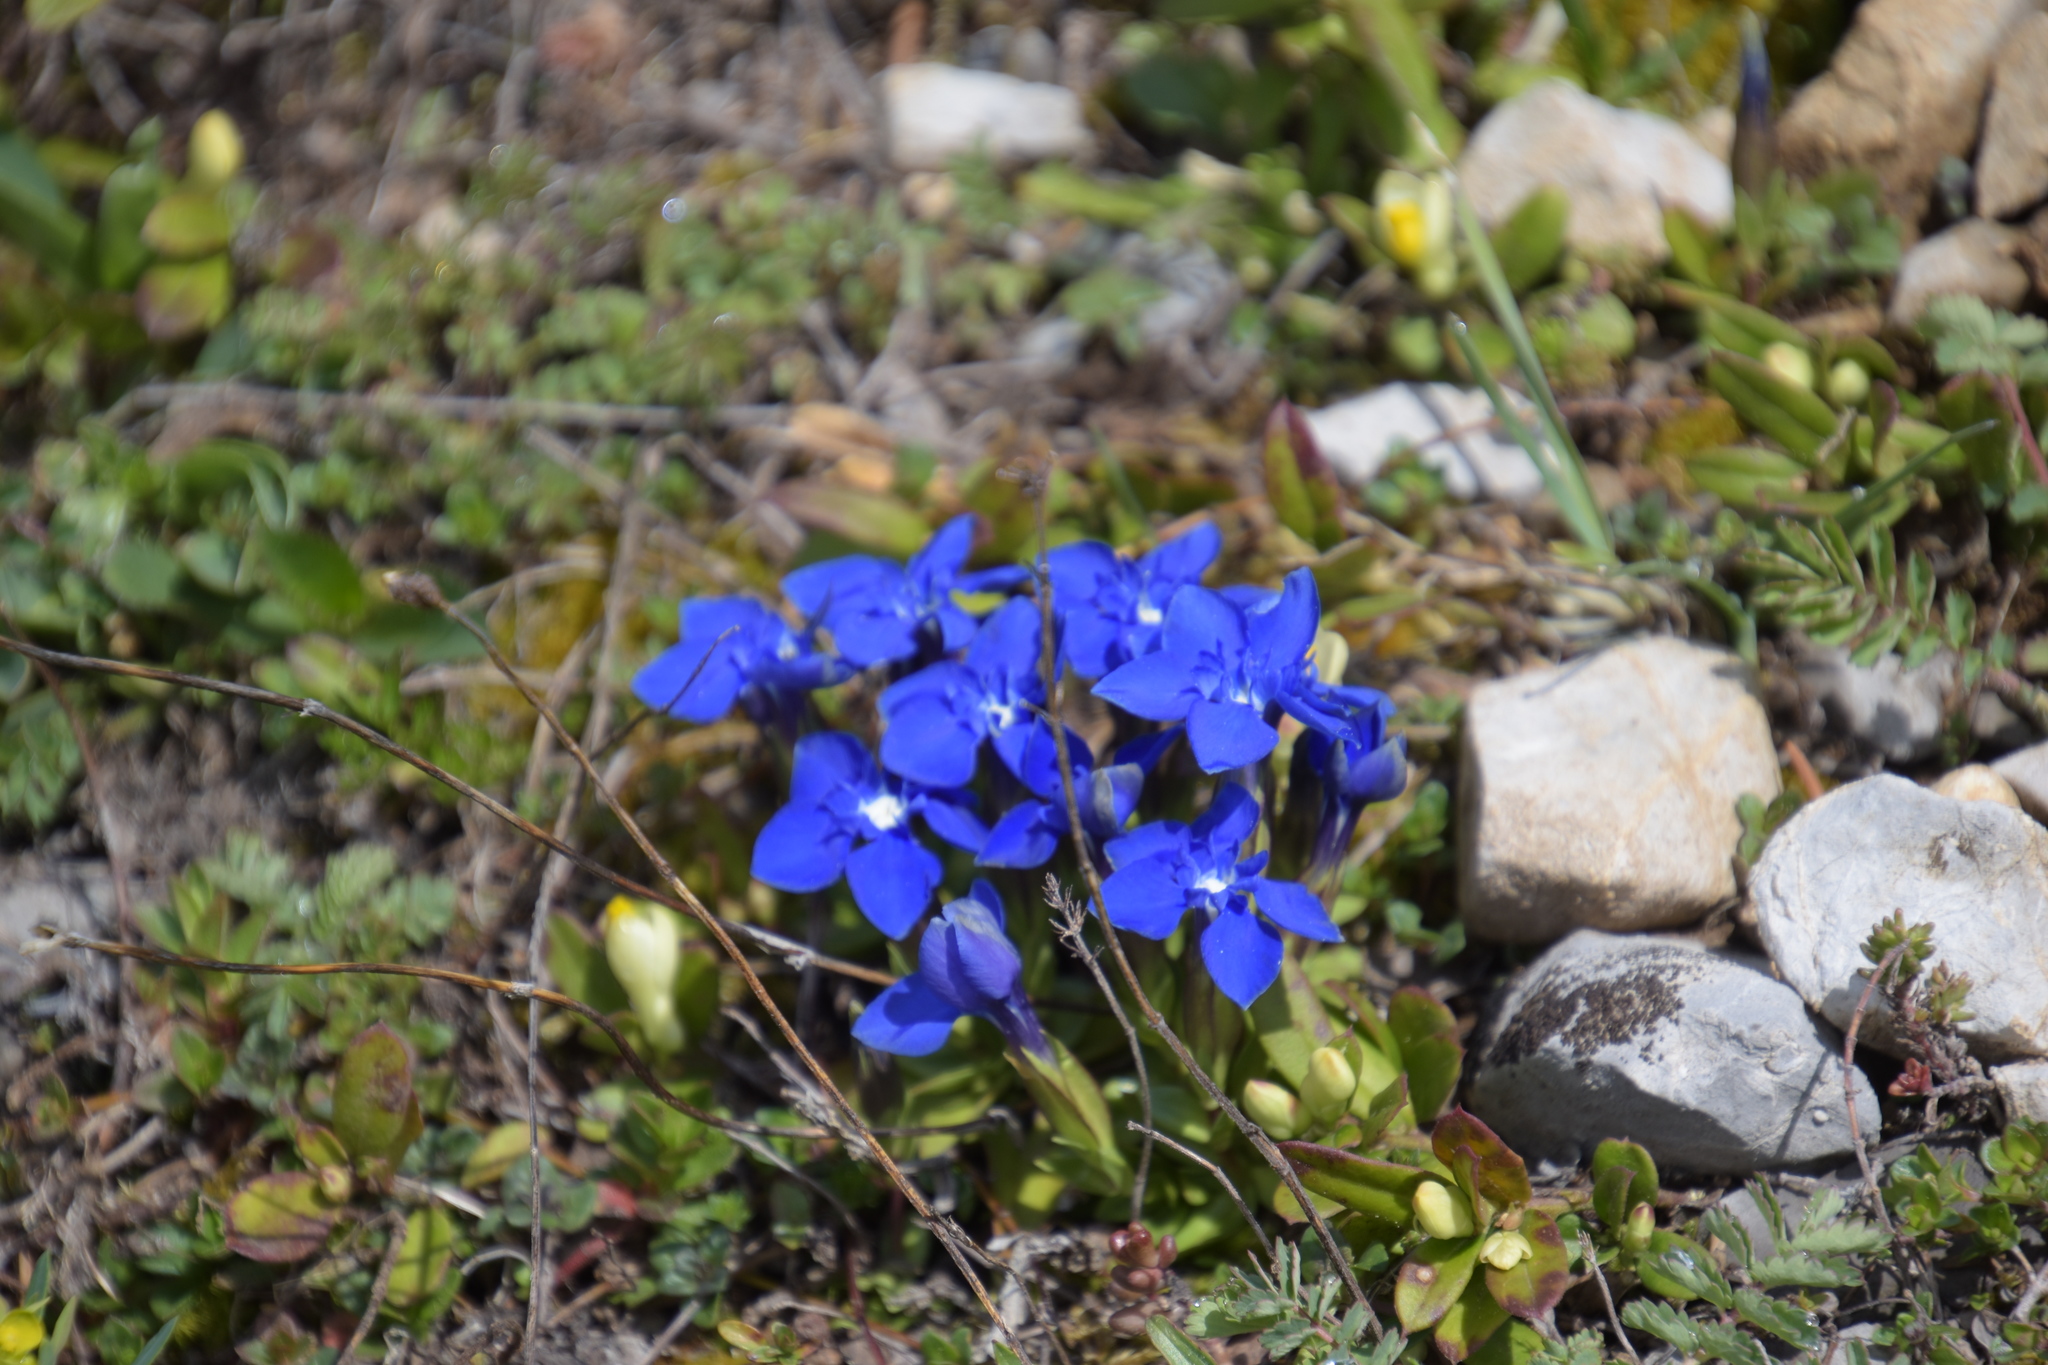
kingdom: Plantae
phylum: Tracheophyta
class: Magnoliopsida
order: Gentianales
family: Gentianaceae
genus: Gentiana
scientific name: Gentiana verna
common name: Spring gentian
